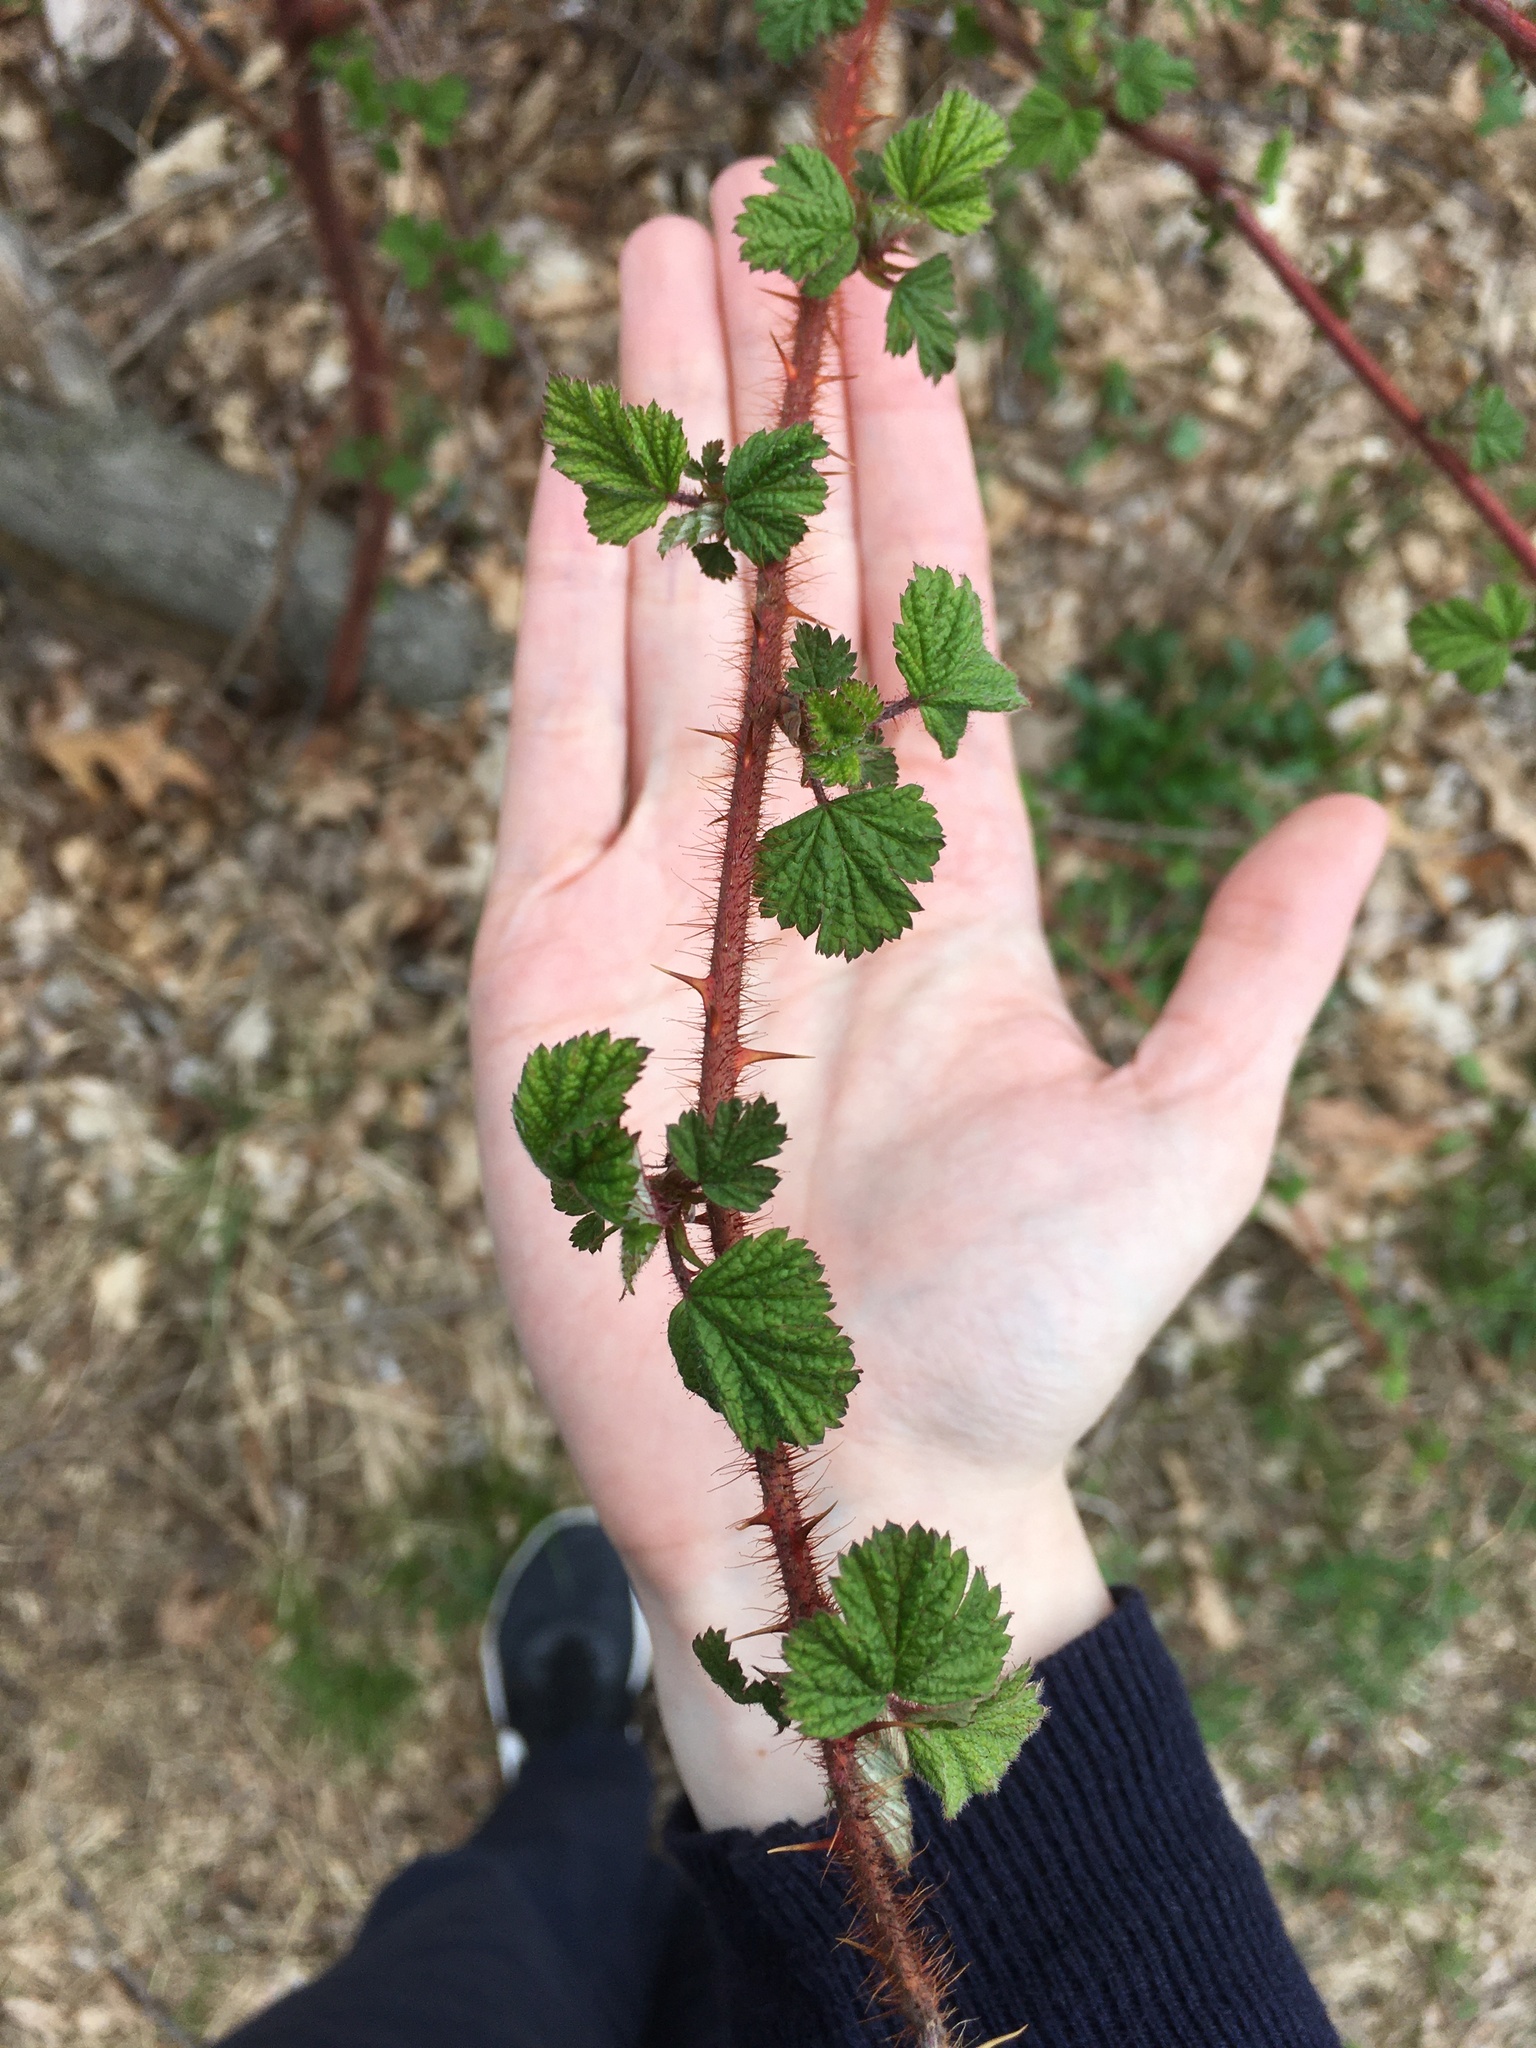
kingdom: Plantae
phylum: Tracheophyta
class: Magnoliopsida
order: Rosales
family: Rosaceae
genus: Rubus
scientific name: Rubus phoenicolasius
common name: Japanese wineberry
